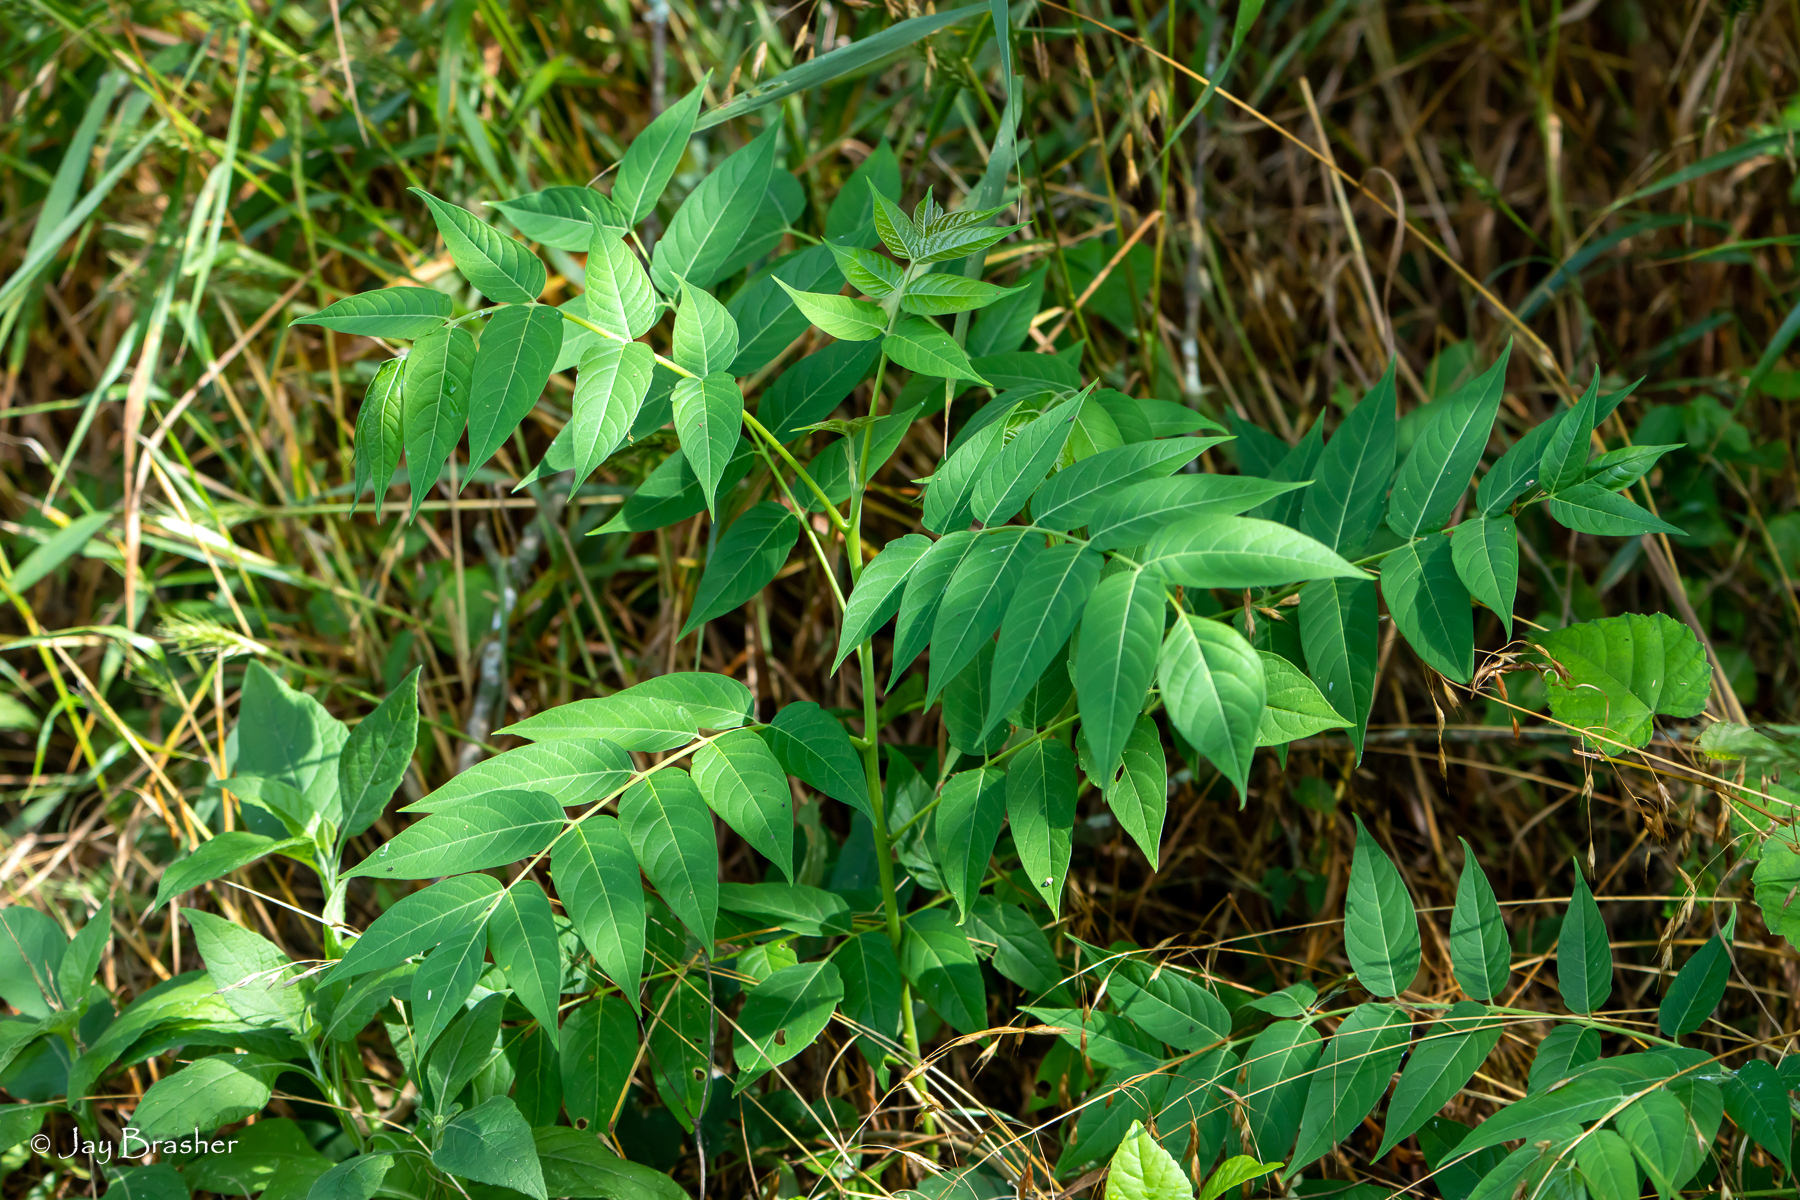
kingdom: Plantae
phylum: Tracheophyta
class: Magnoliopsida
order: Sapindales
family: Simaroubaceae
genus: Ailanthus
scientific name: Ailanthus altissima
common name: Tree-of-heaven
